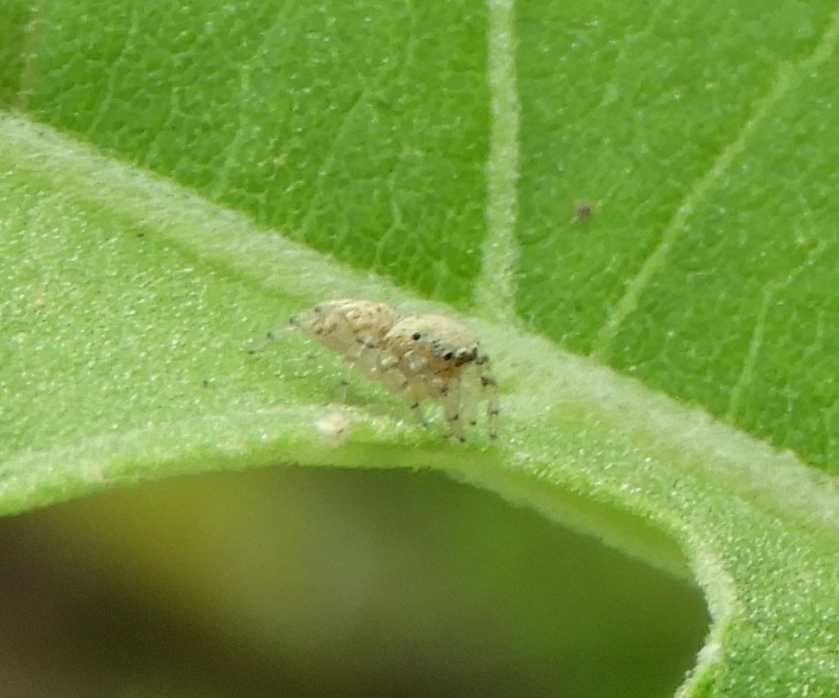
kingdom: Animalia
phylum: Arthropoda
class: Arachnida
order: Araneae
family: Salticidae
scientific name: Salticidae
